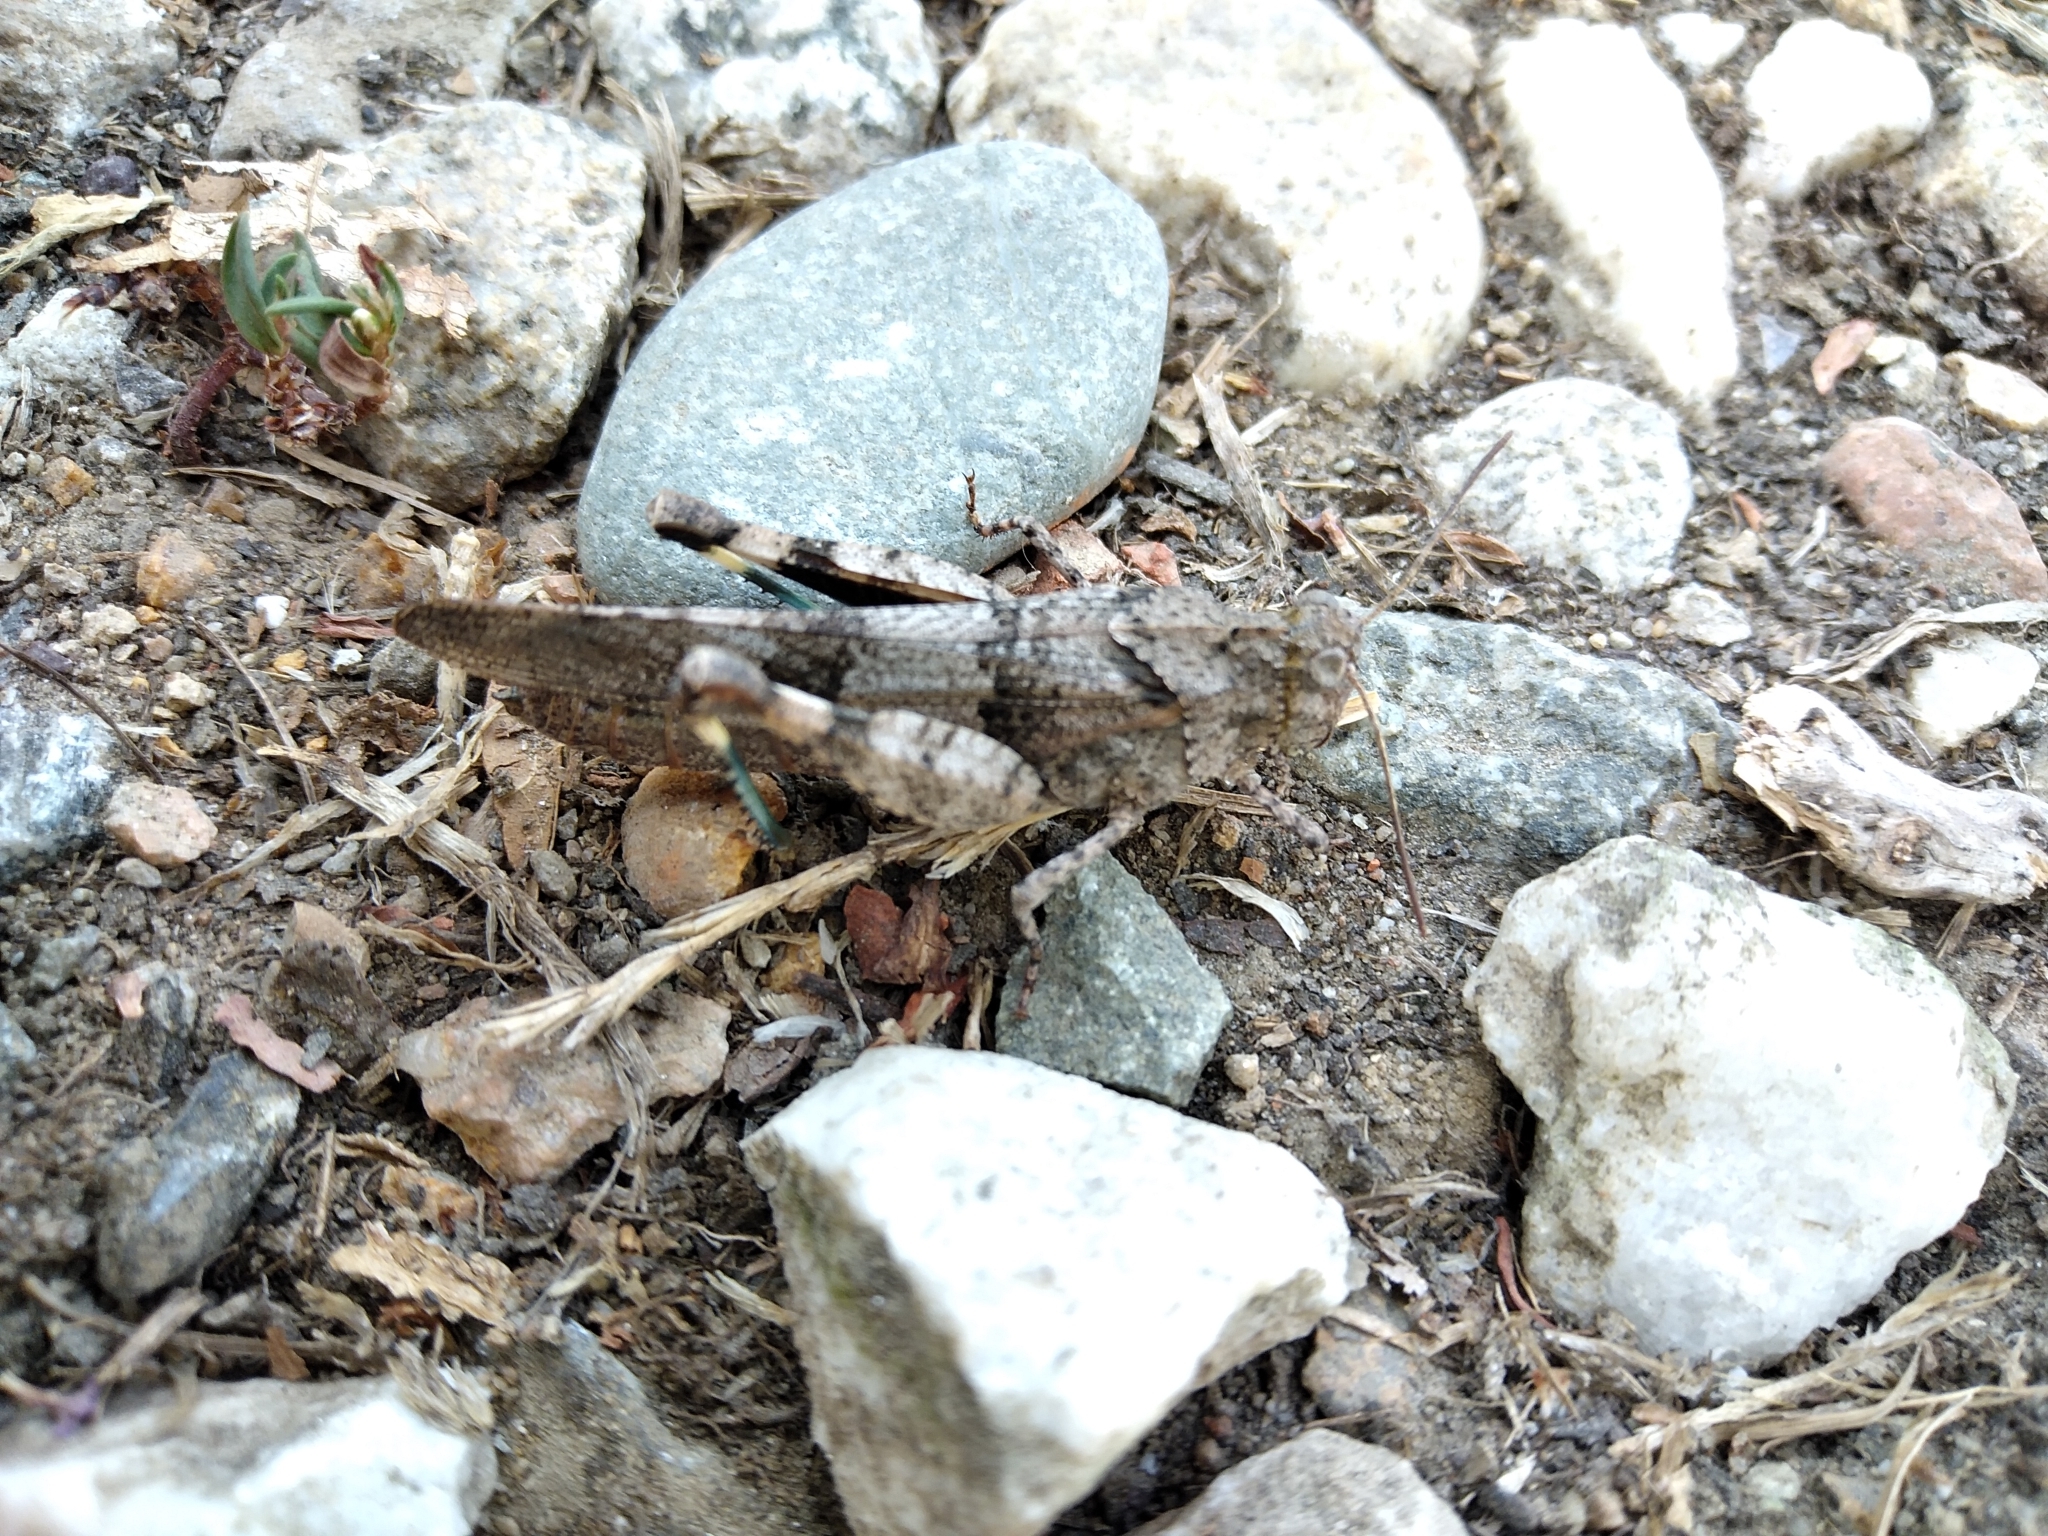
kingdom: Animalia
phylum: Arthropoda
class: Insecta
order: Orthoptera
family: Acrididae
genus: Oedipoda
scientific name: Oedipoda caerulescens
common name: Blue-winged grasshopper
